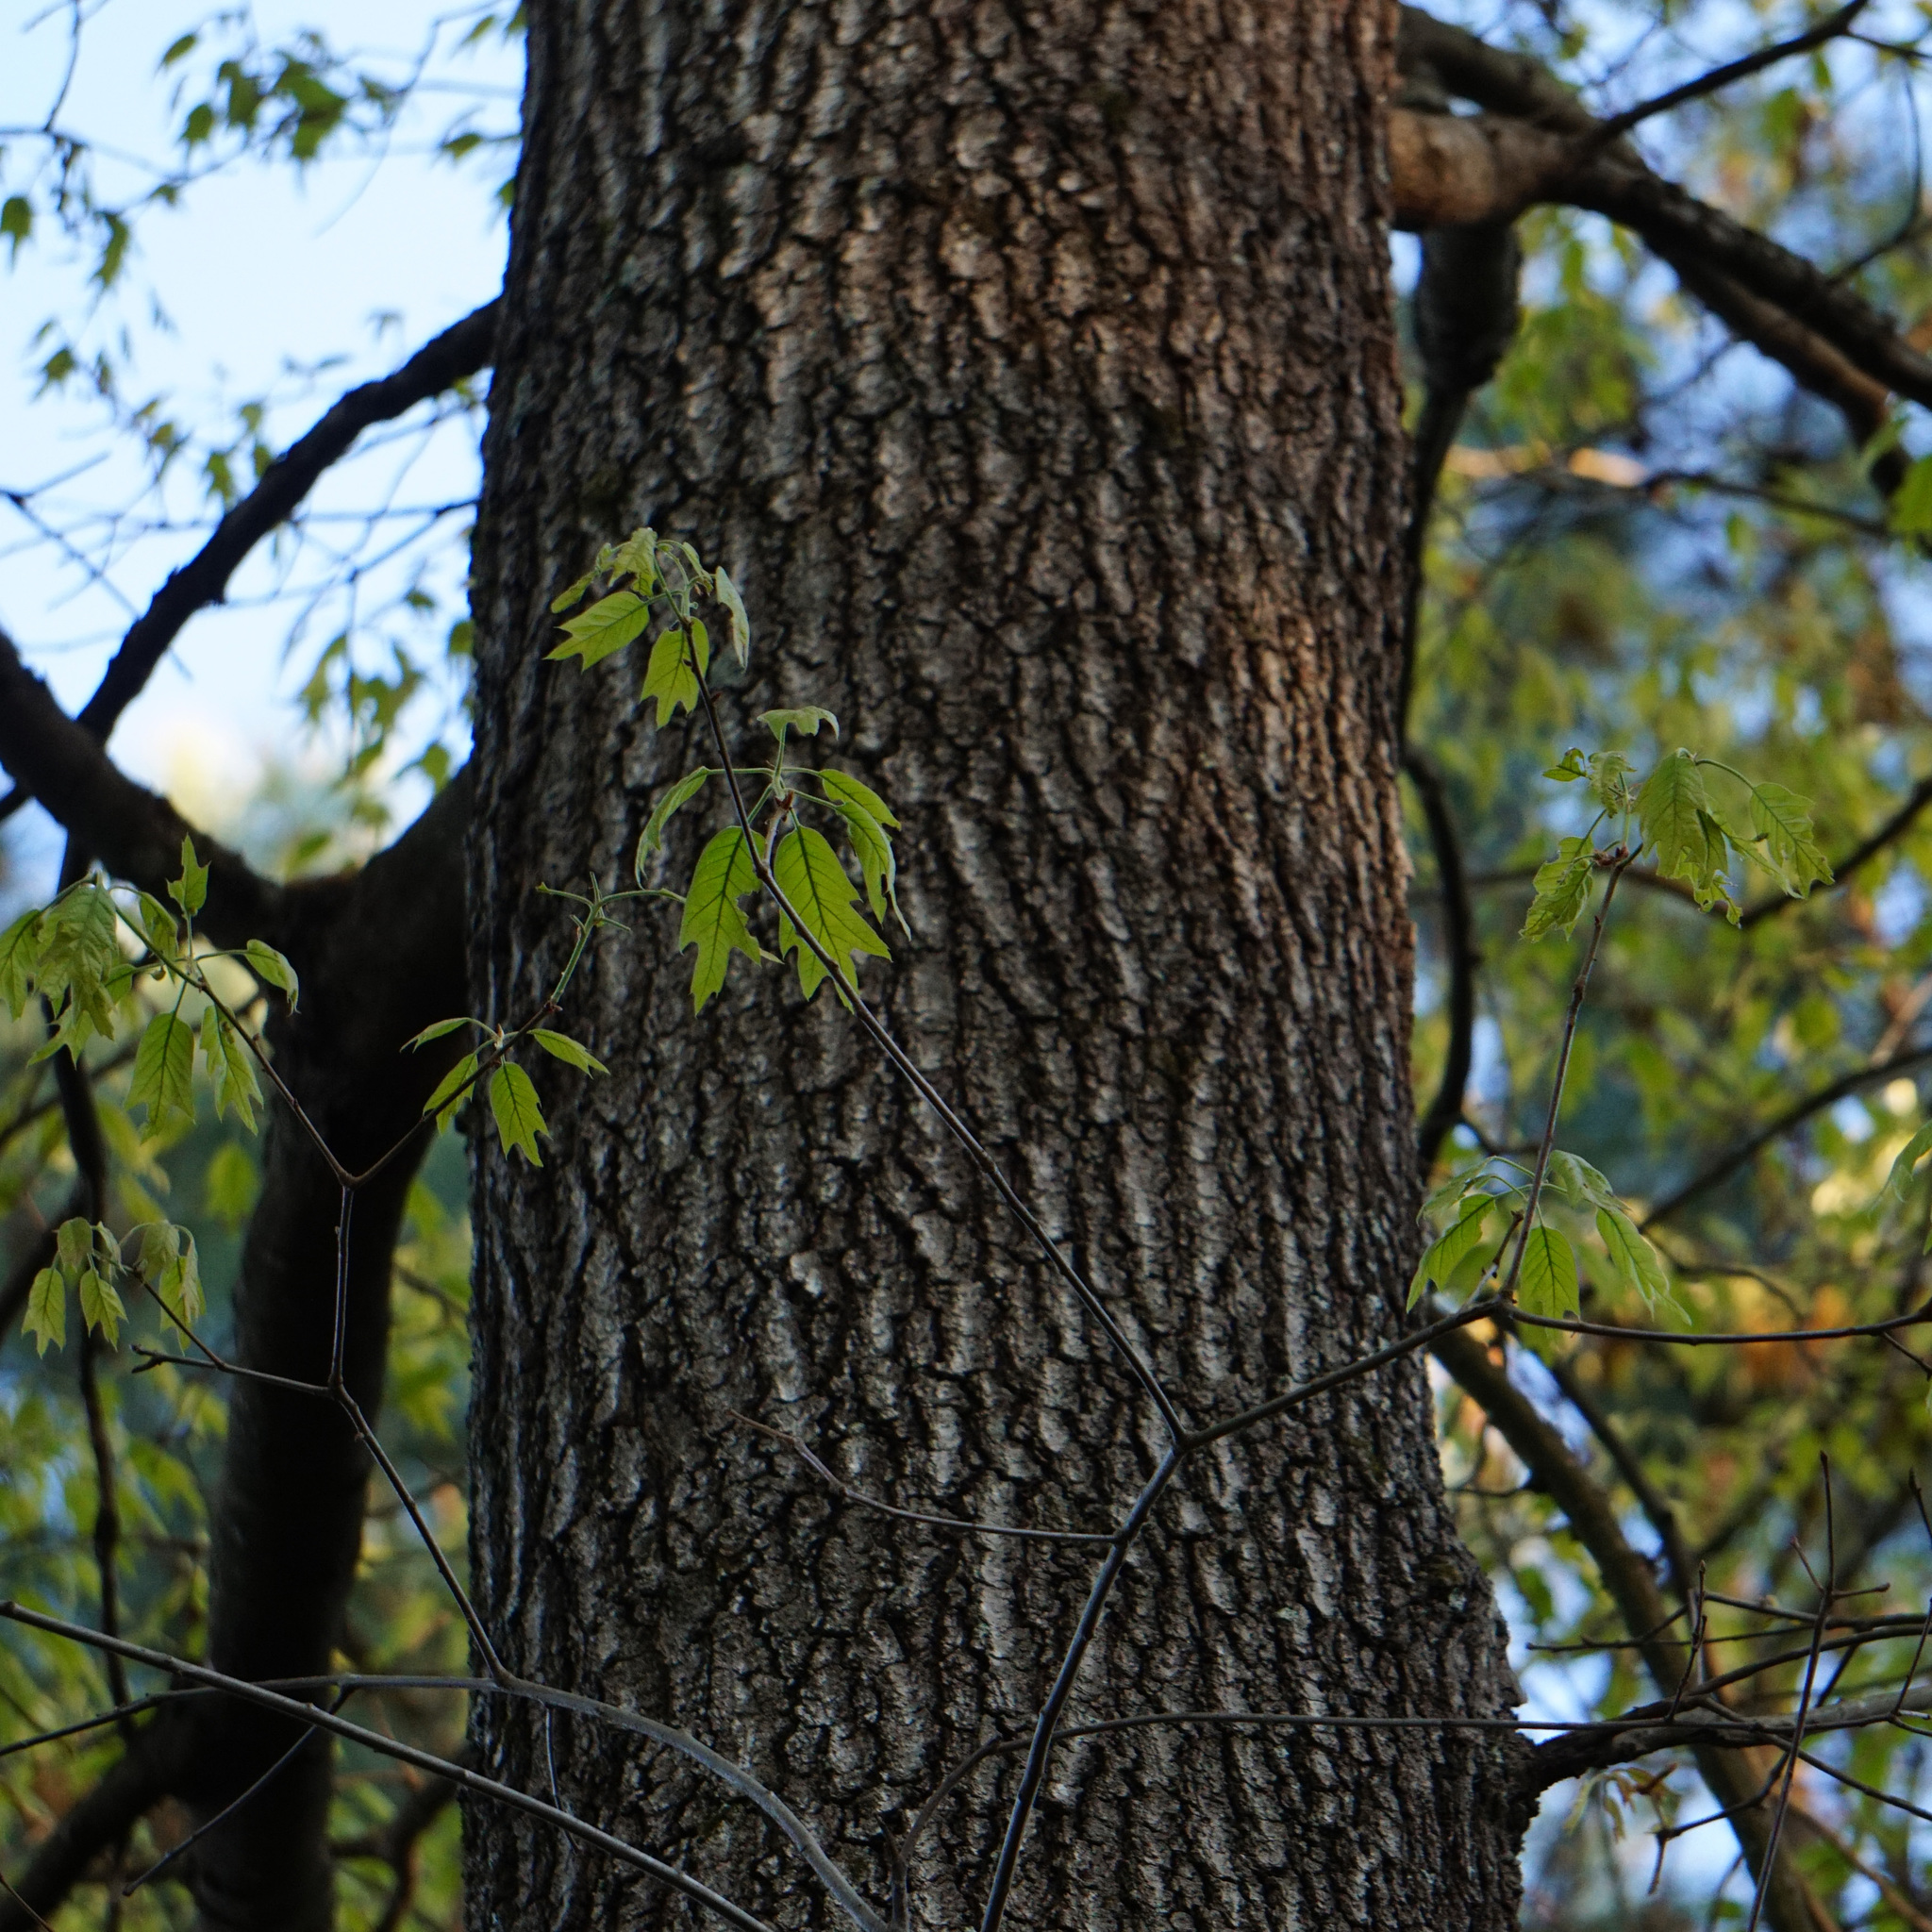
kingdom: Plantae
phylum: Tracheophyta
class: Magnoliopsida
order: Fagales
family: Fagaceae
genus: Quercus
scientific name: Quercus falcata
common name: Southern red oak
